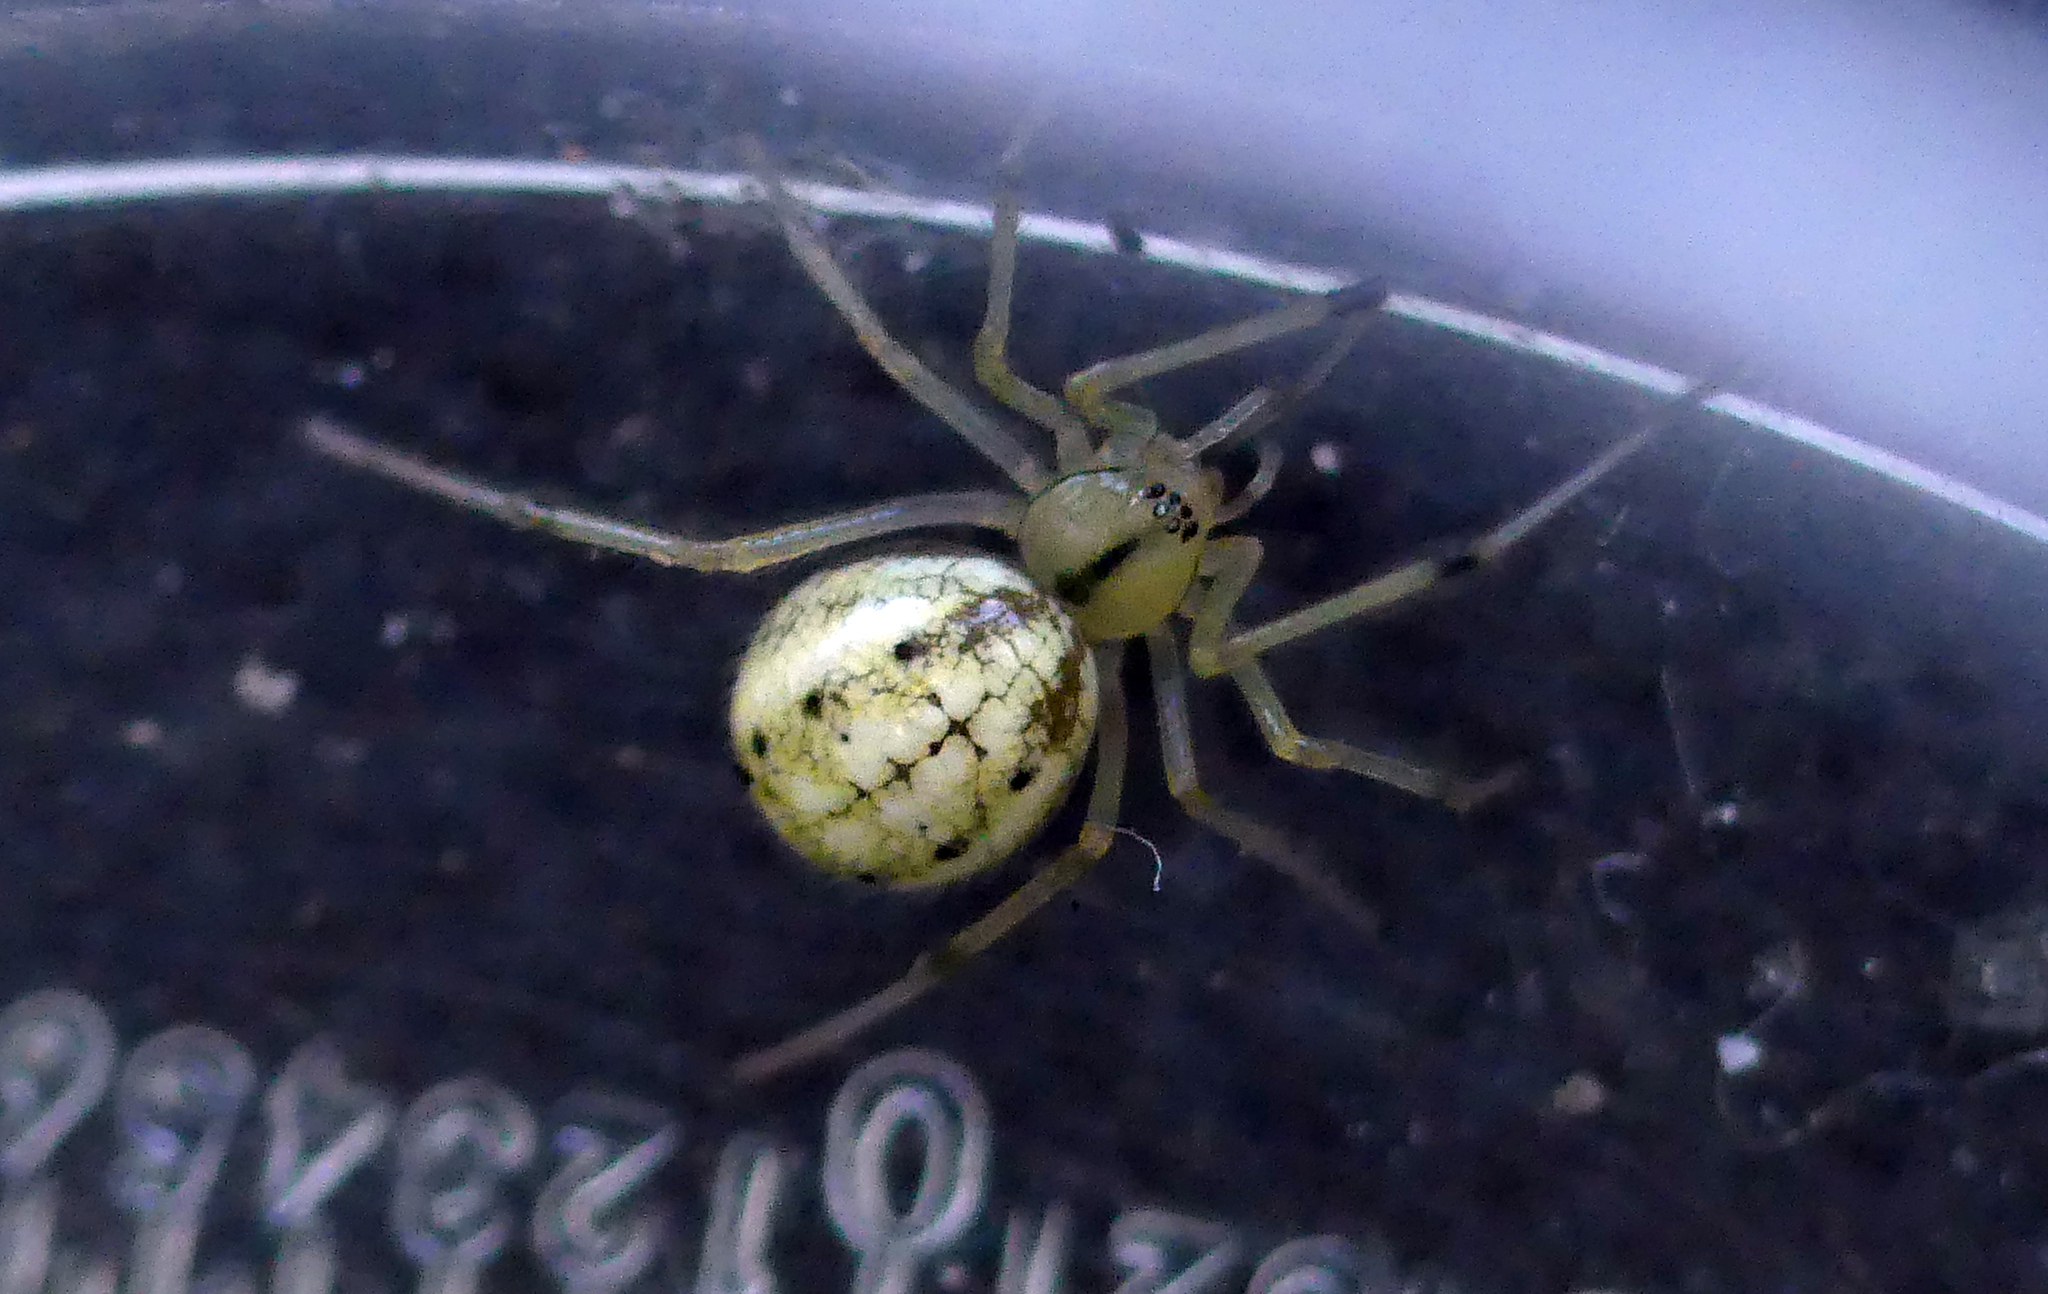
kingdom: Animalia
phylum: Arthropoda
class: Arachnida
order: Araneae
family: Theridiidae
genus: Enoplognatha
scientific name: Enoplognatha
